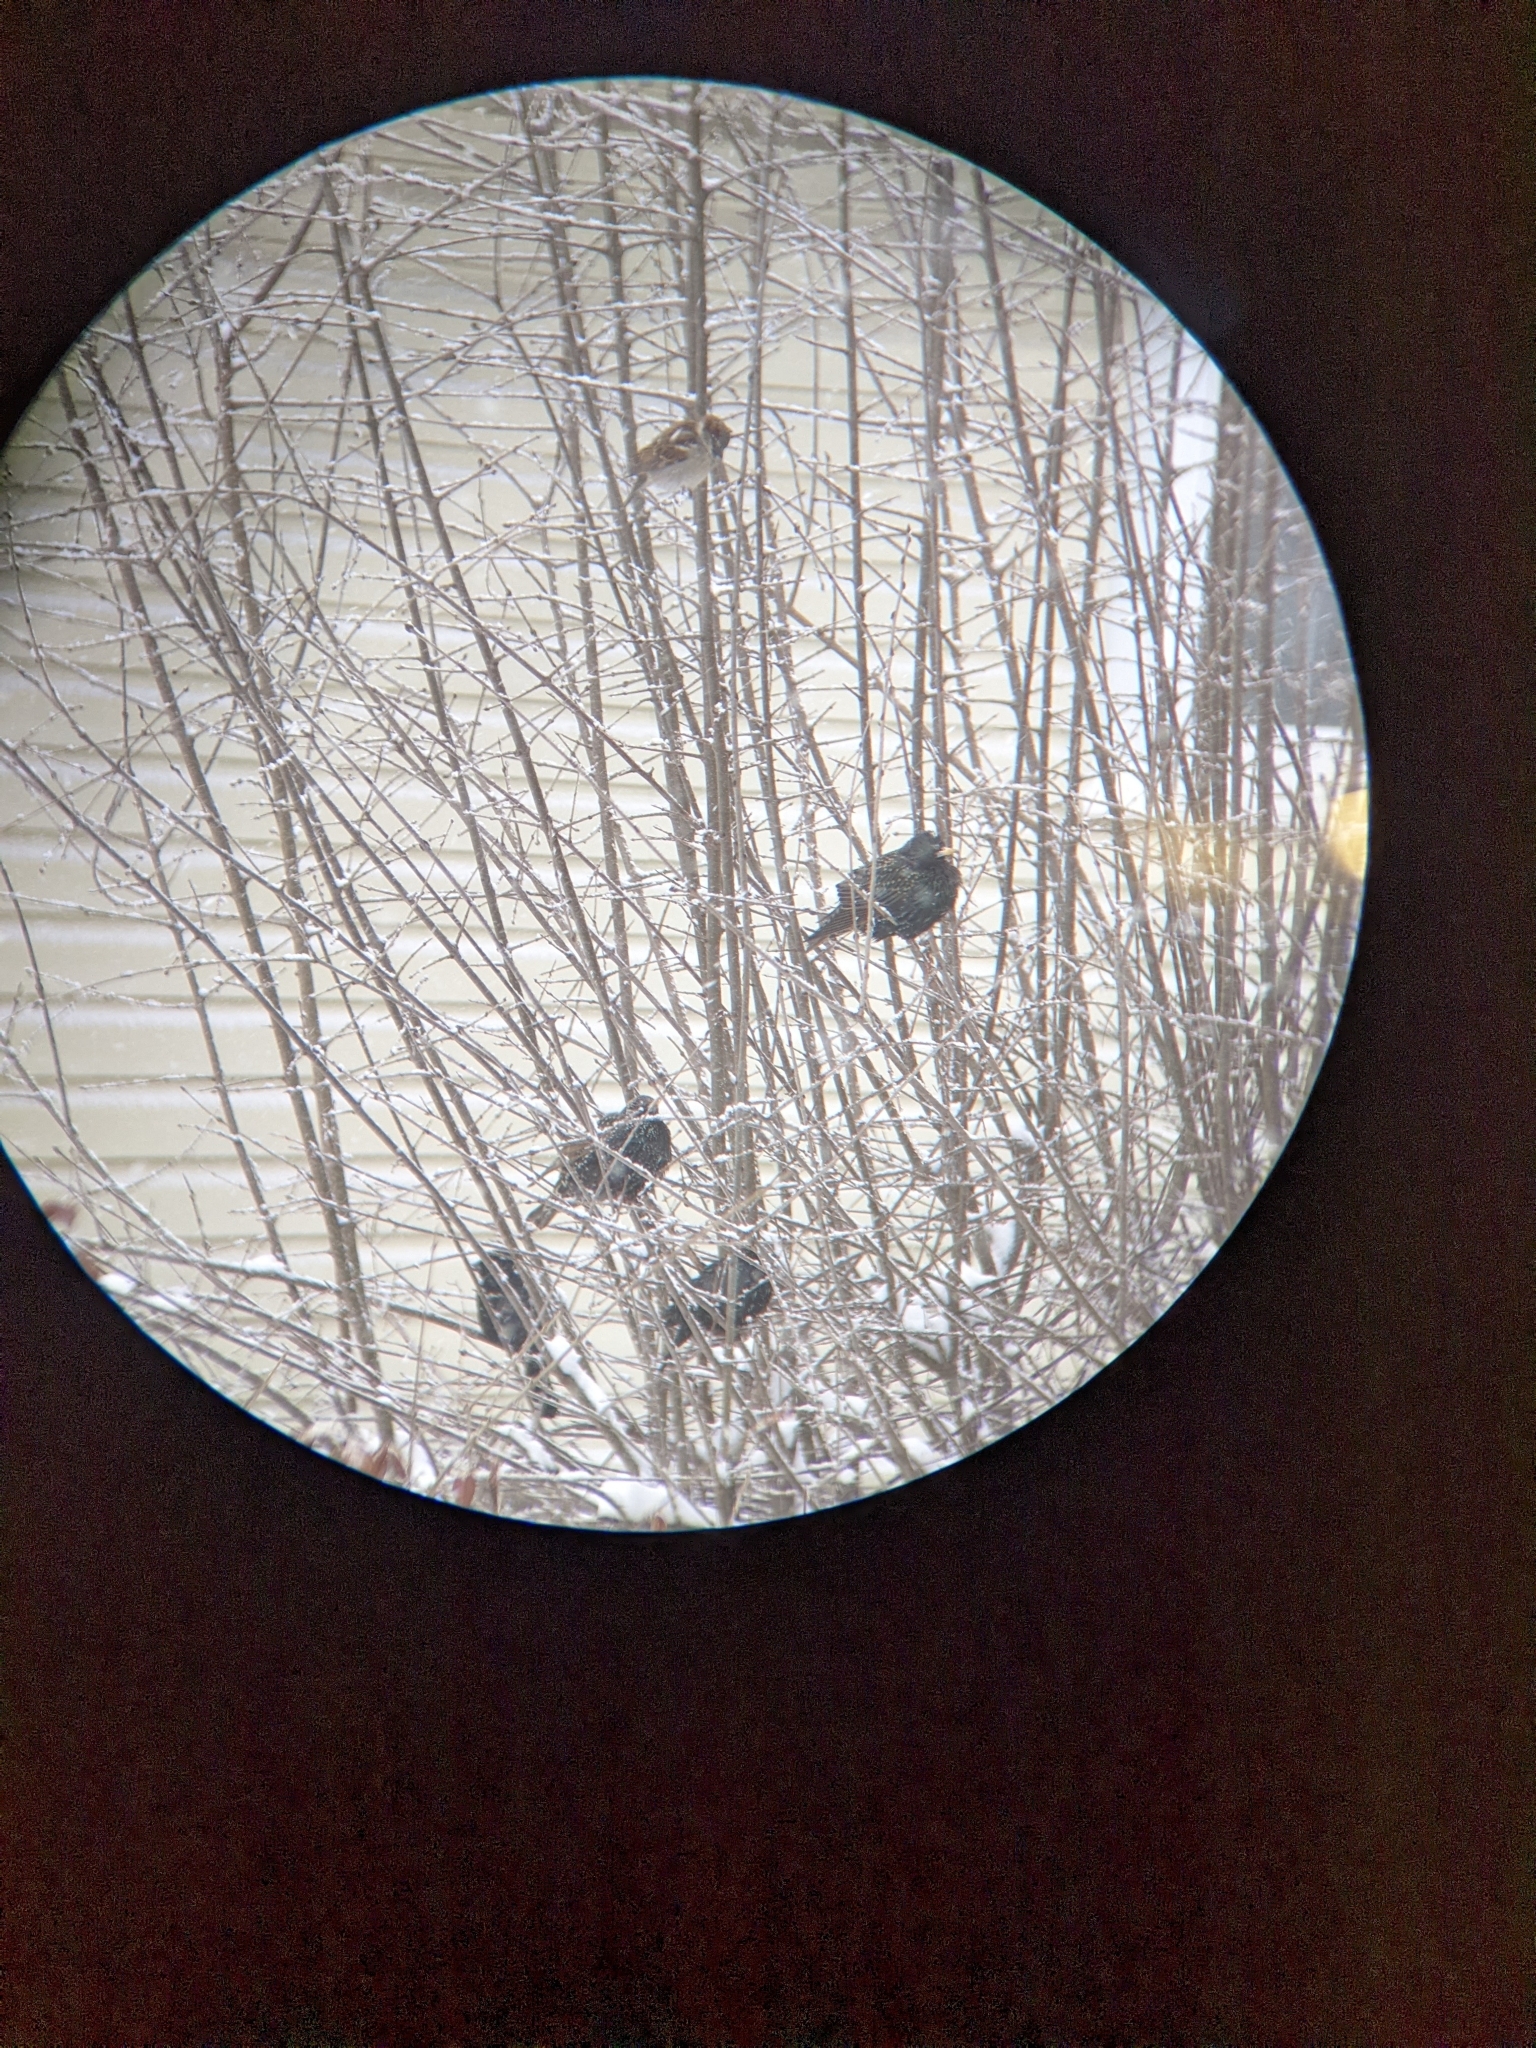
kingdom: Animalia
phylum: Chordata
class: Aves
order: Passeriformes
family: Sturnidae
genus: Sturnus
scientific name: Sturnus vulgaris
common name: Common starling
